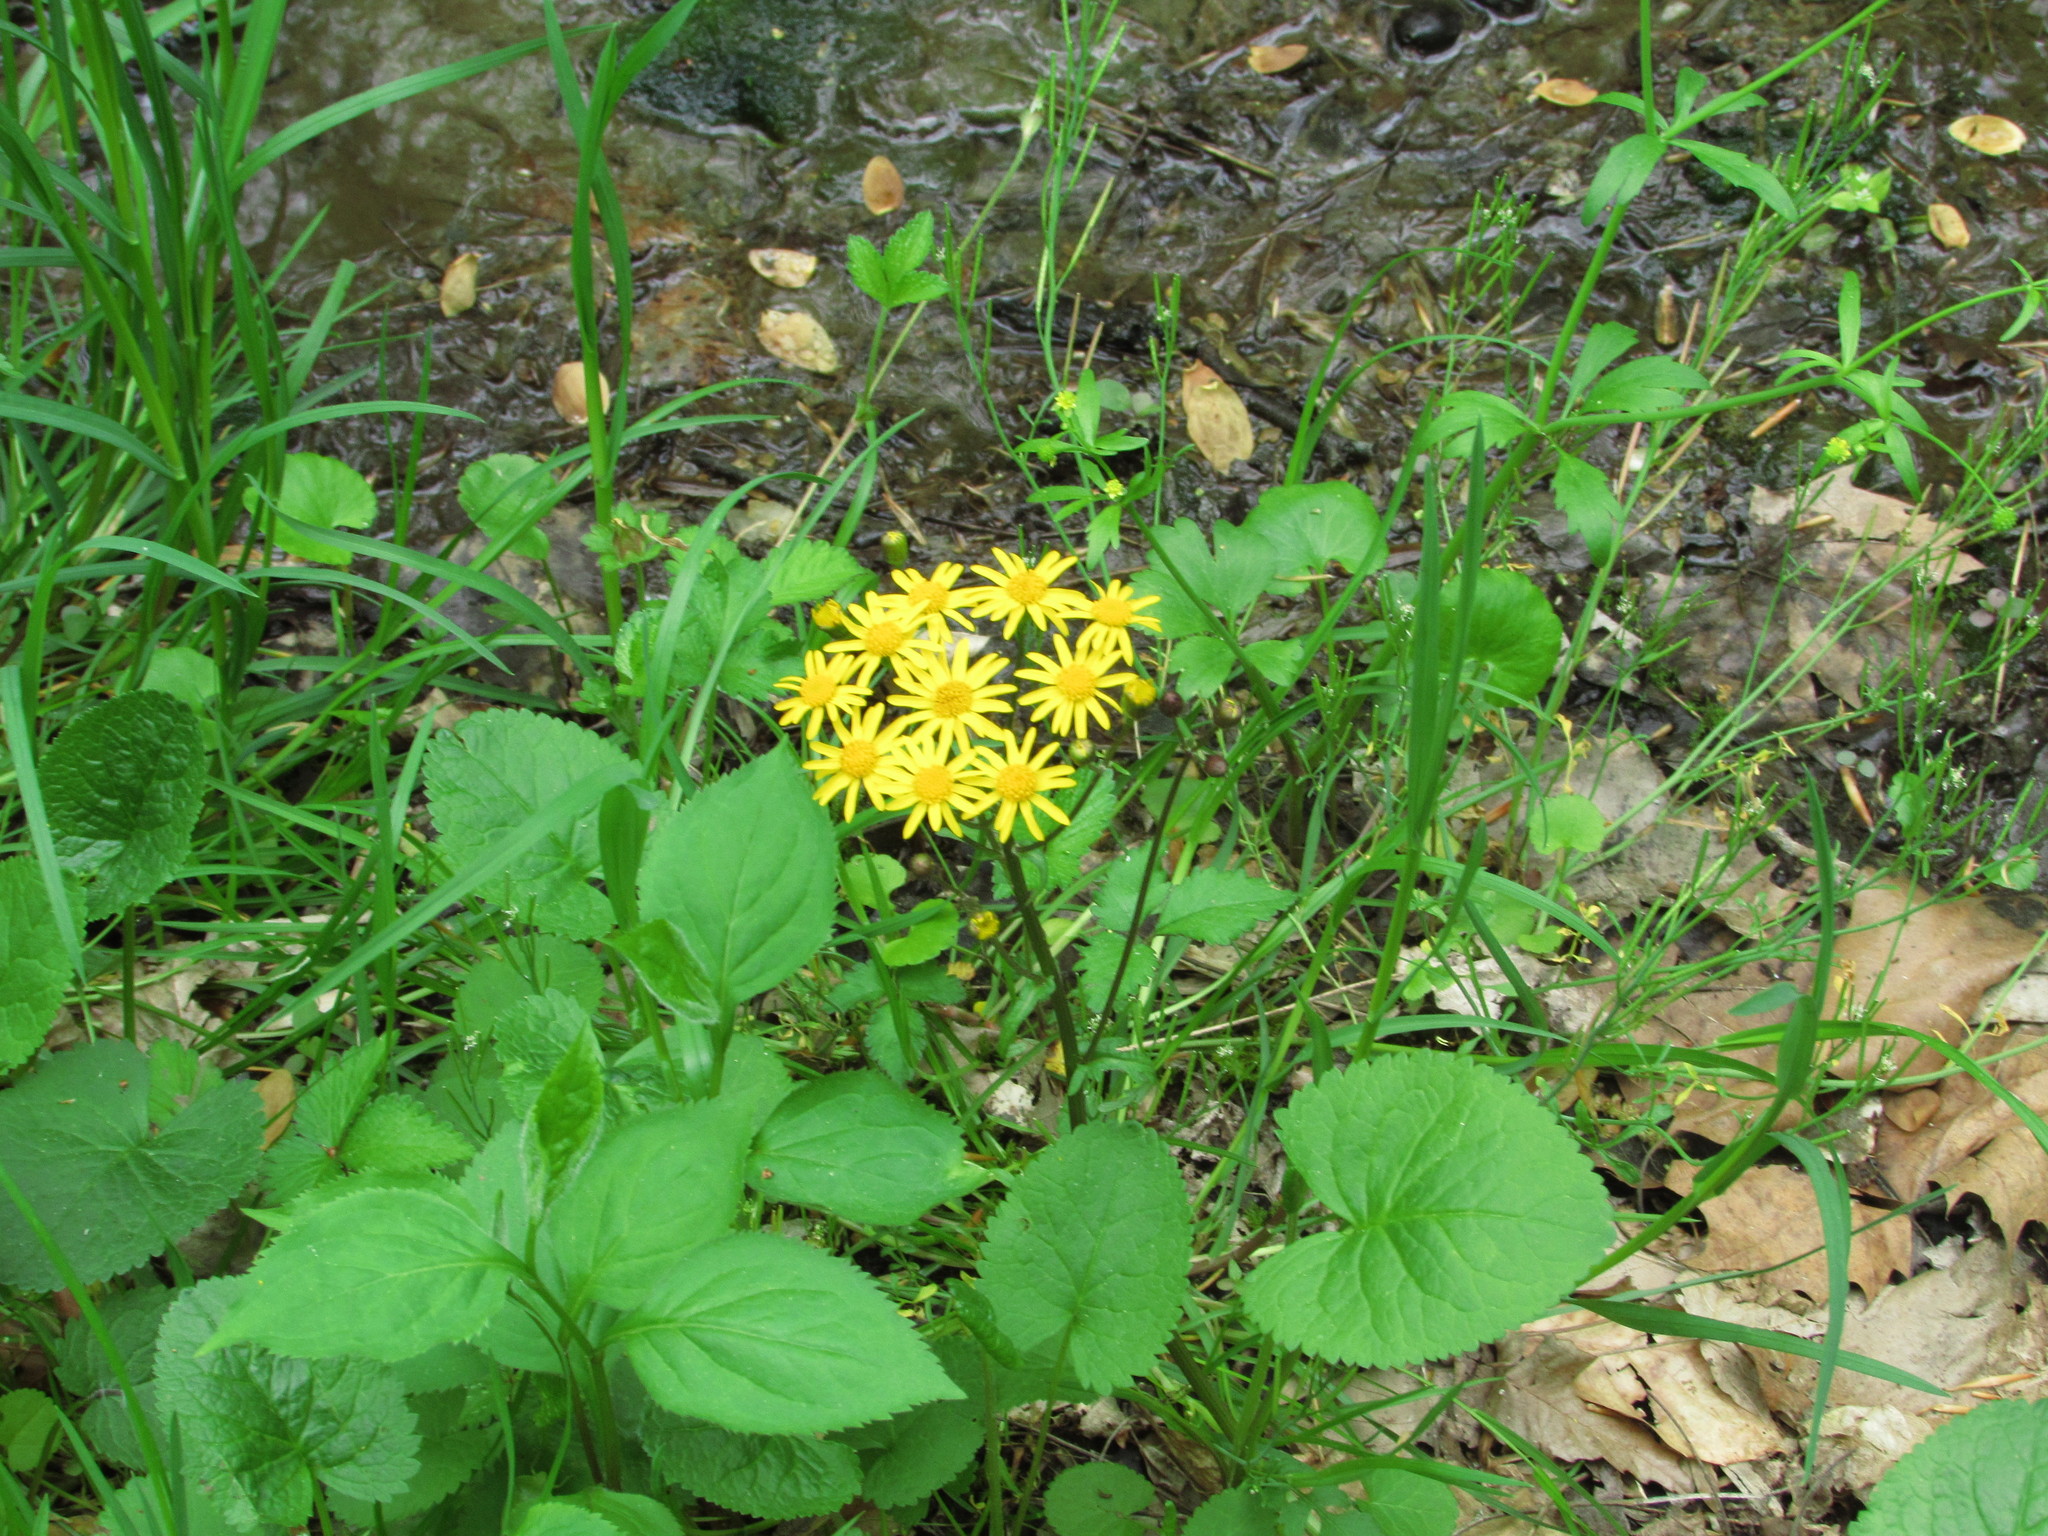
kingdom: Plantae
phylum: Tracheophyta
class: Magnoliopsida
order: Asterales
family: Asteraceae
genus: Packera
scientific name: Packera aurea
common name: Golden groundsel
